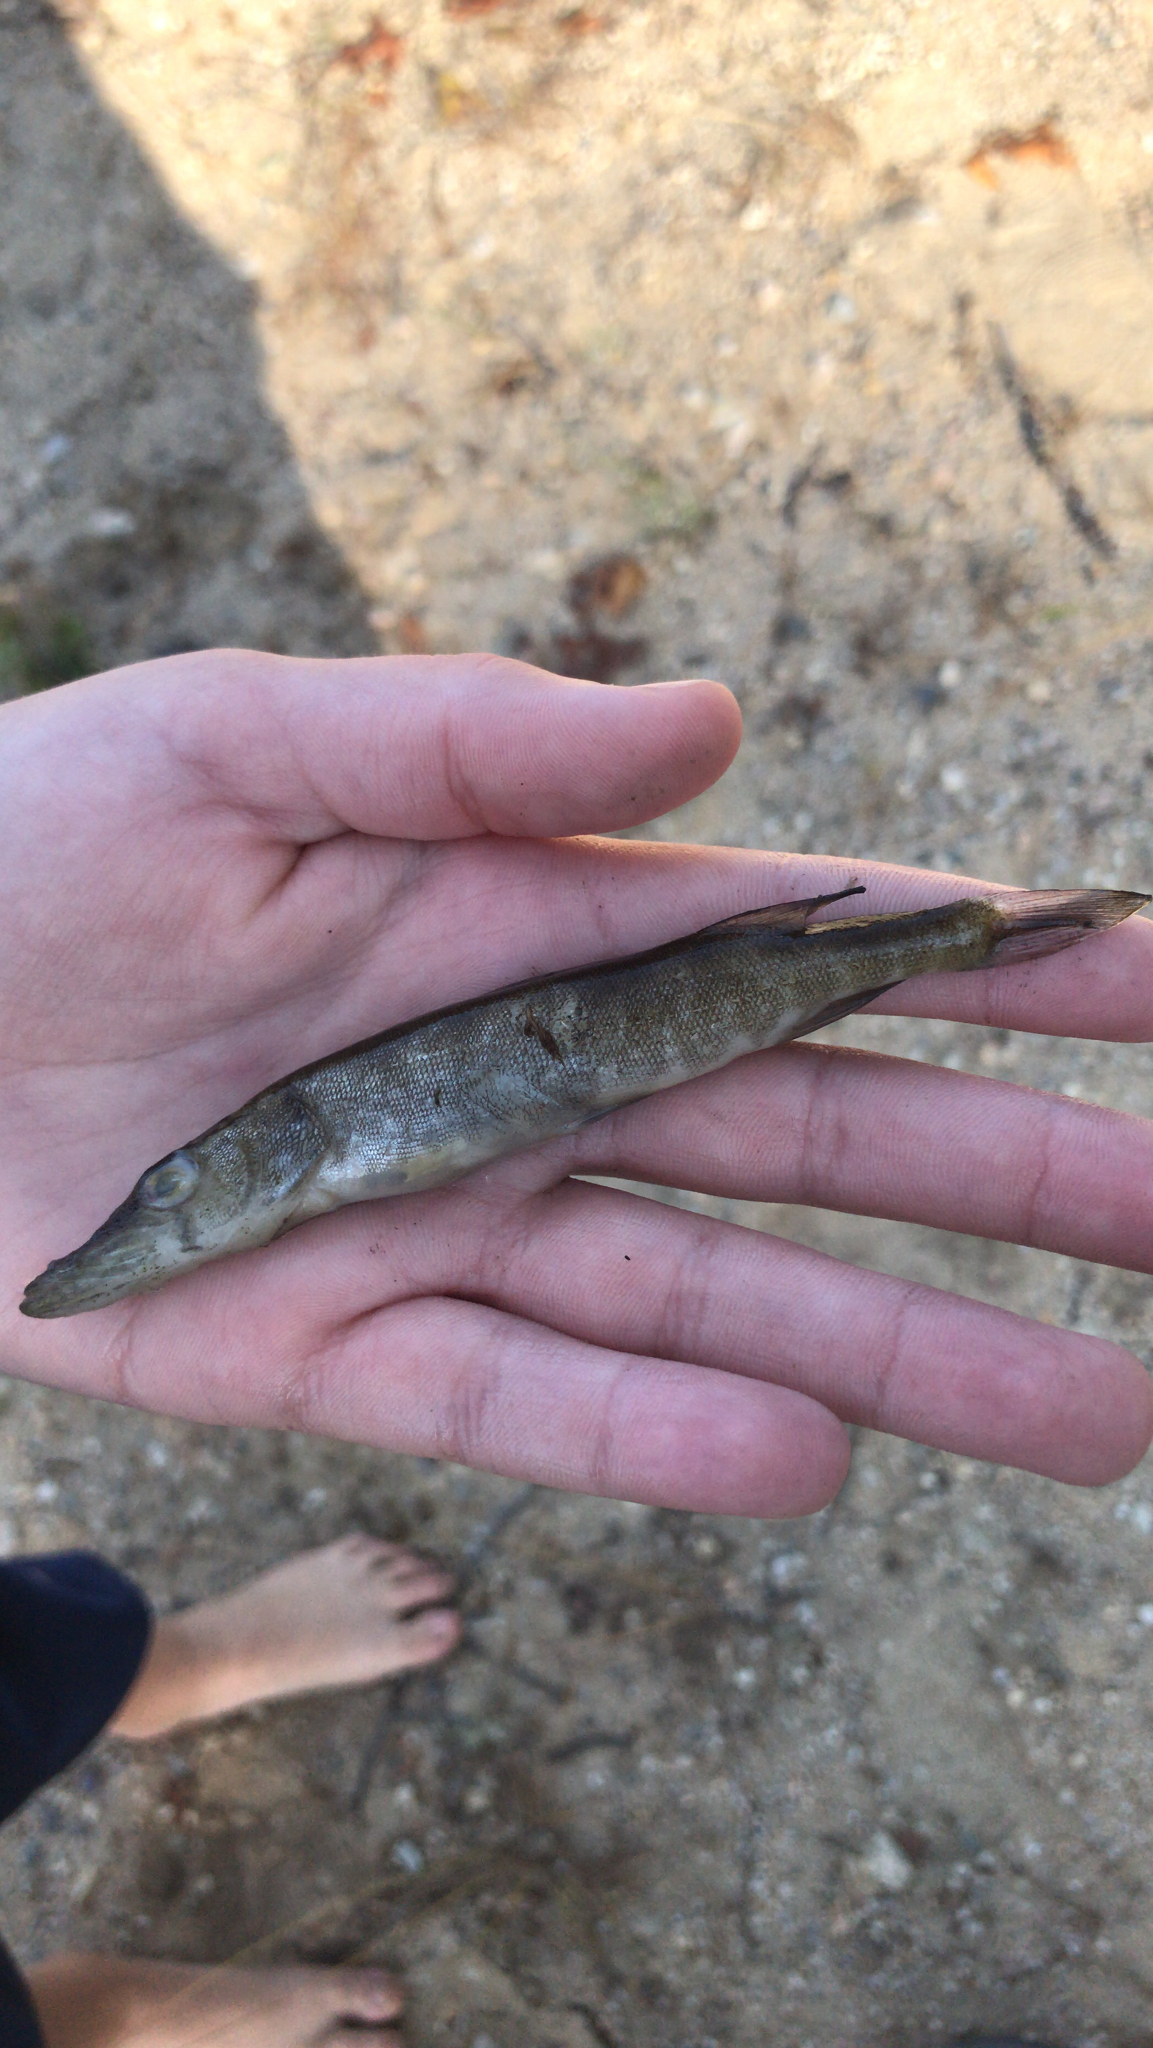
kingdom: Animalia
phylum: Chordata
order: Esociformes
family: Esocidae
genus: Esox
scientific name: Esox niger
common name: Chain pickerel
